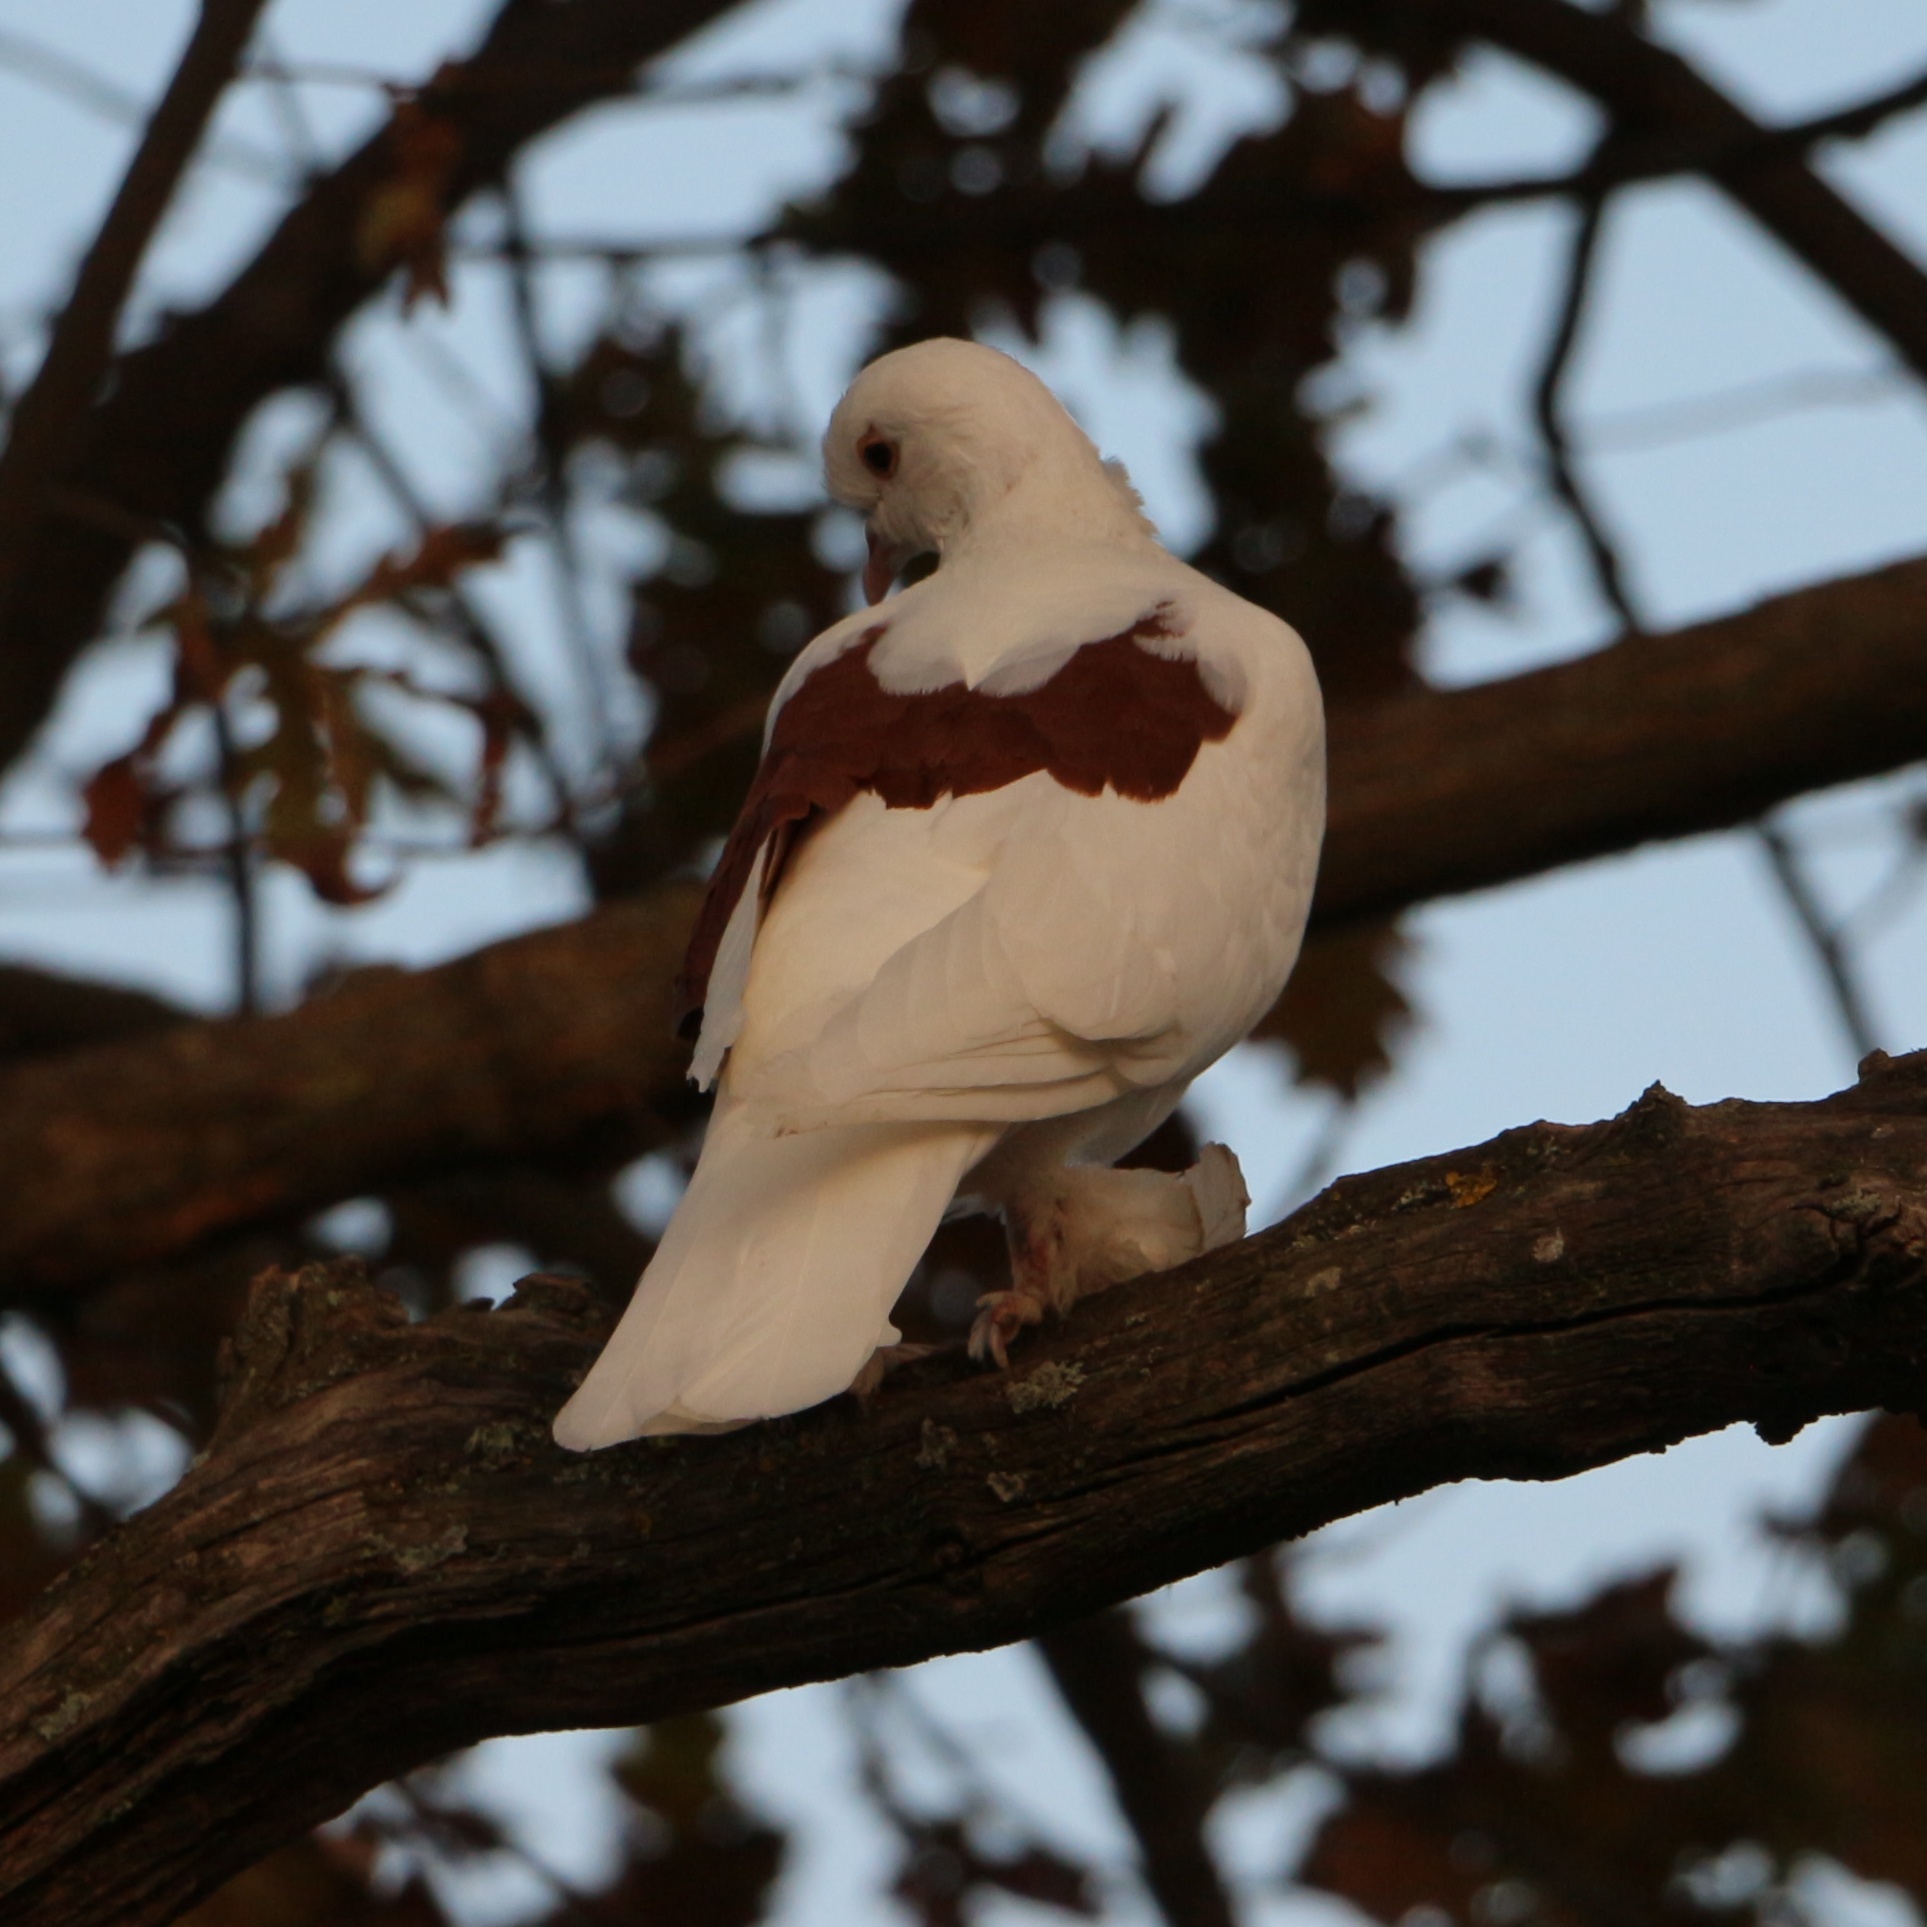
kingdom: Animalia
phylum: Chordata
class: Aves
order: Columbiformes
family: Columbidae
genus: Columba
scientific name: Columba livia
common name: Rock pigeon
